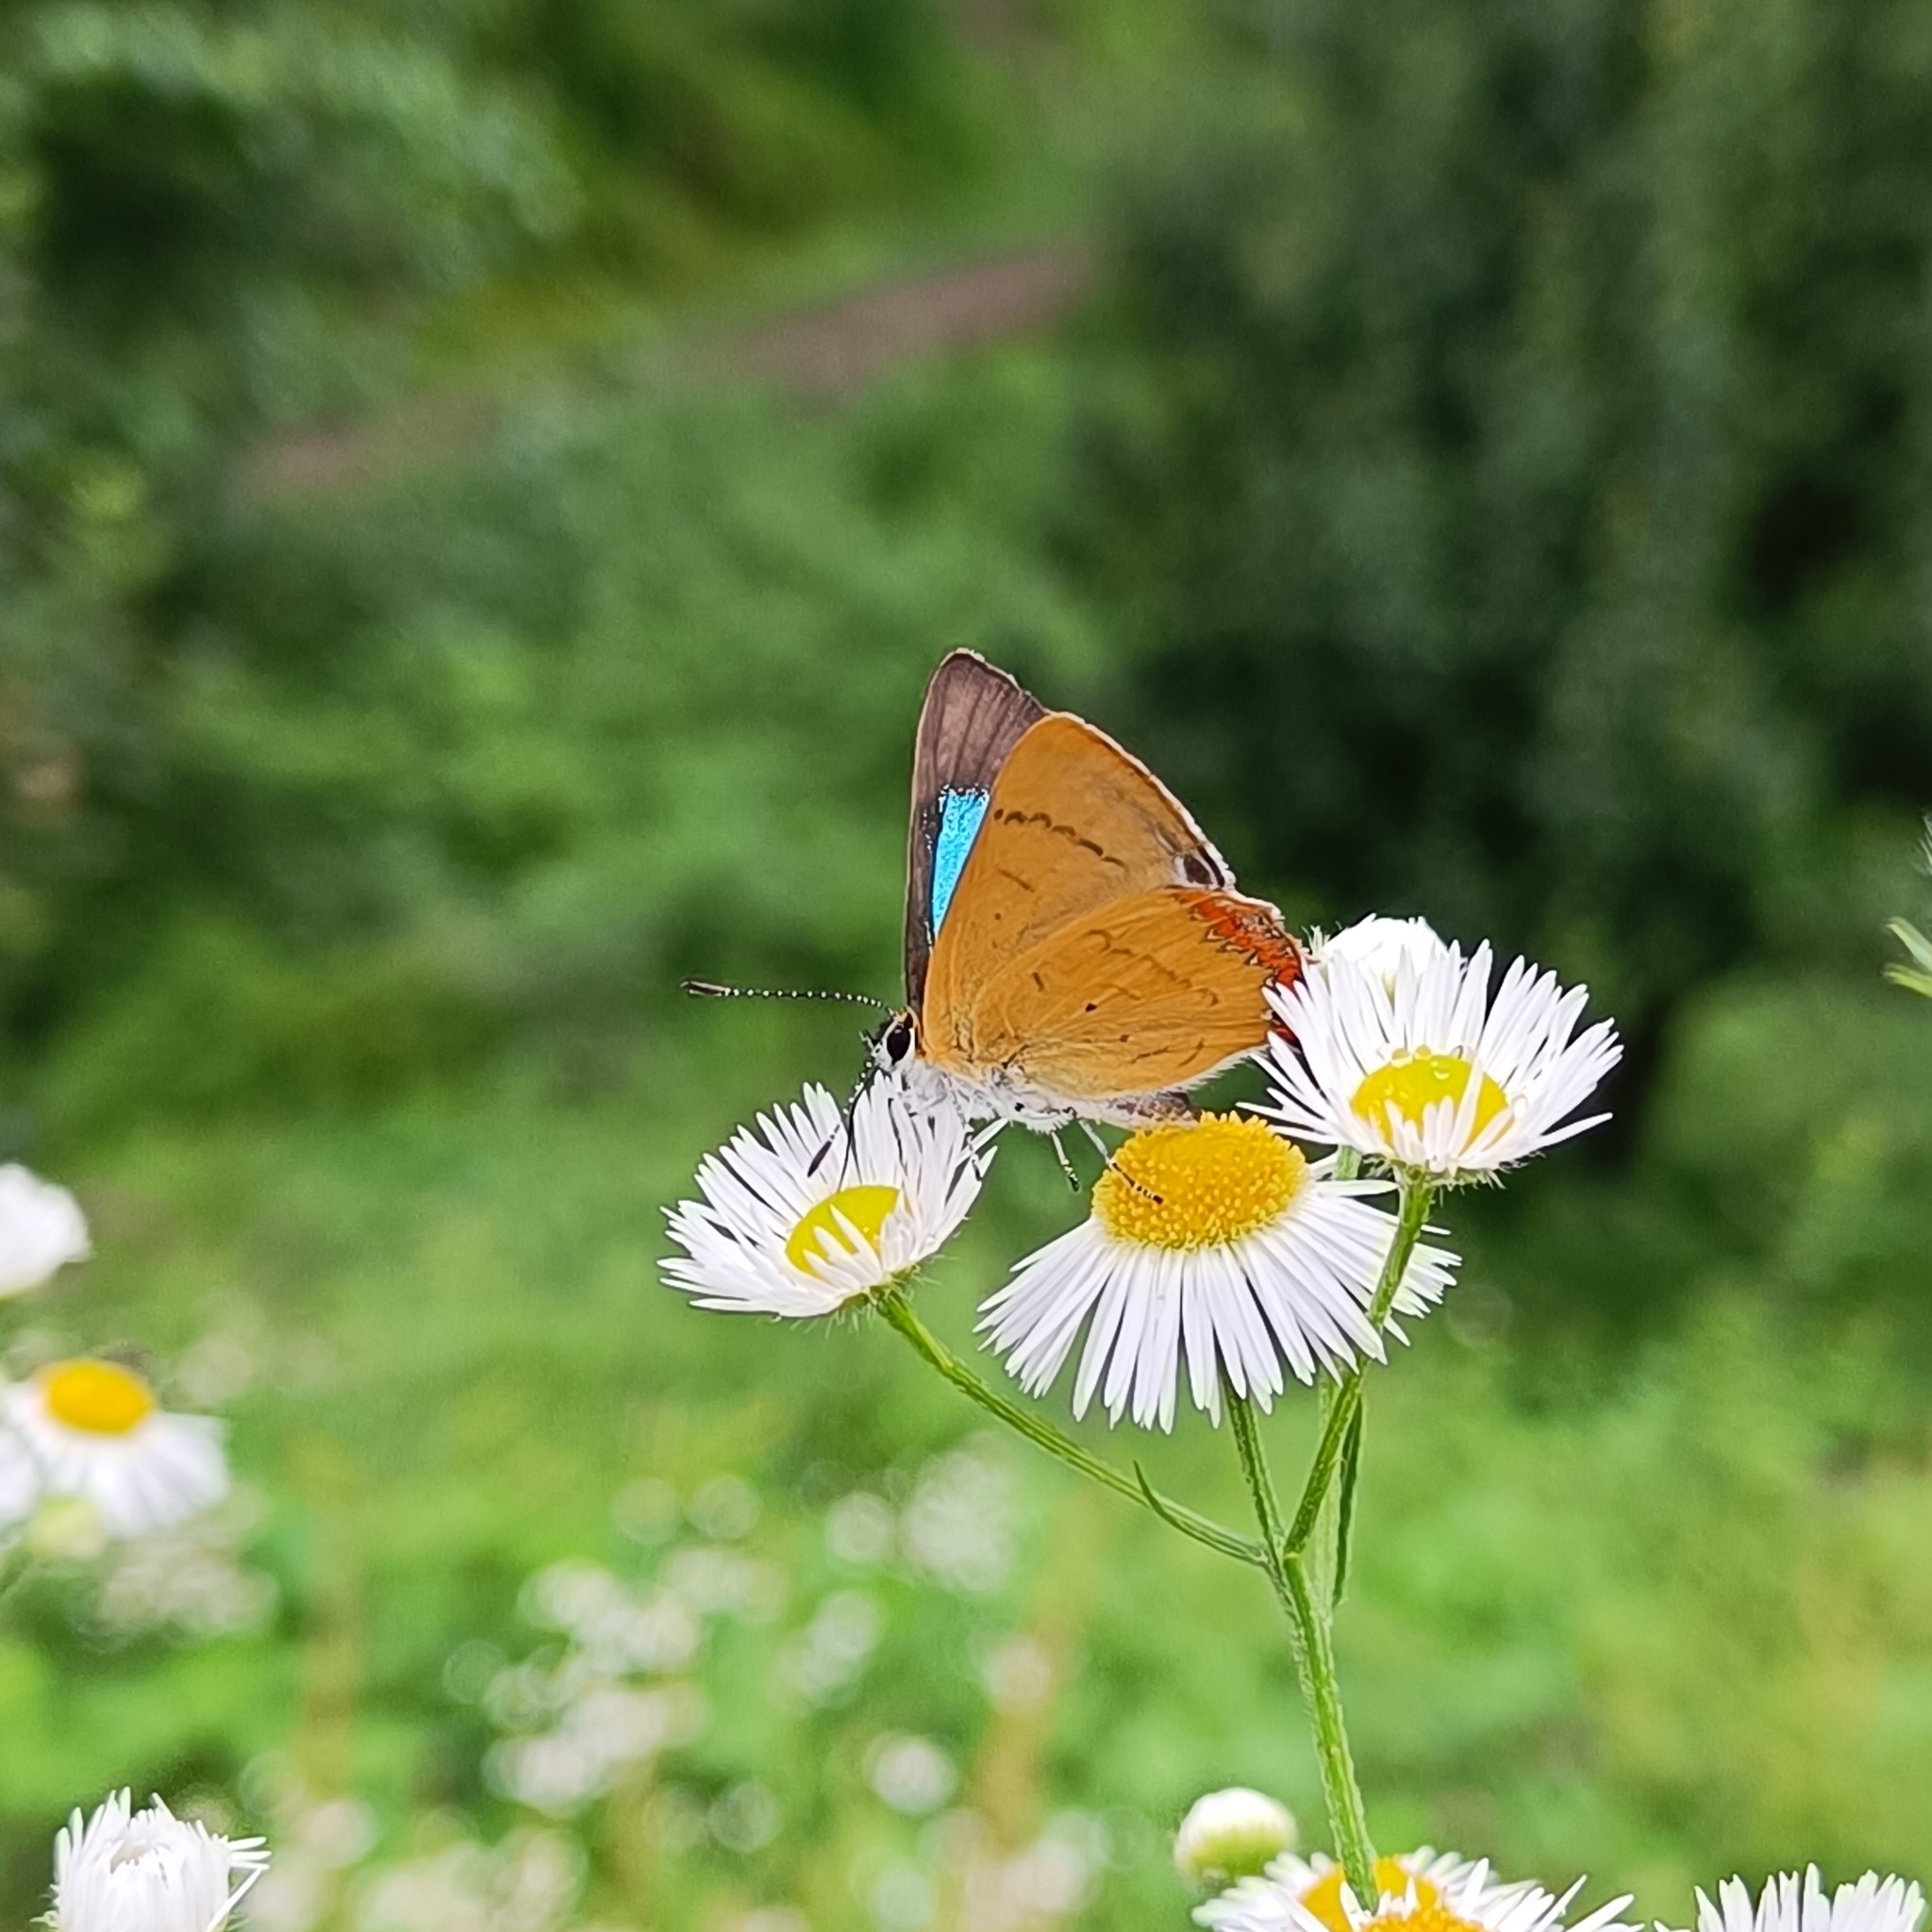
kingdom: Animalia
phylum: Arthropoda
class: Insecta
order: Lepidoptera
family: Lycaenidae
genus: Heliophorus
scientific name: Heliophorus
